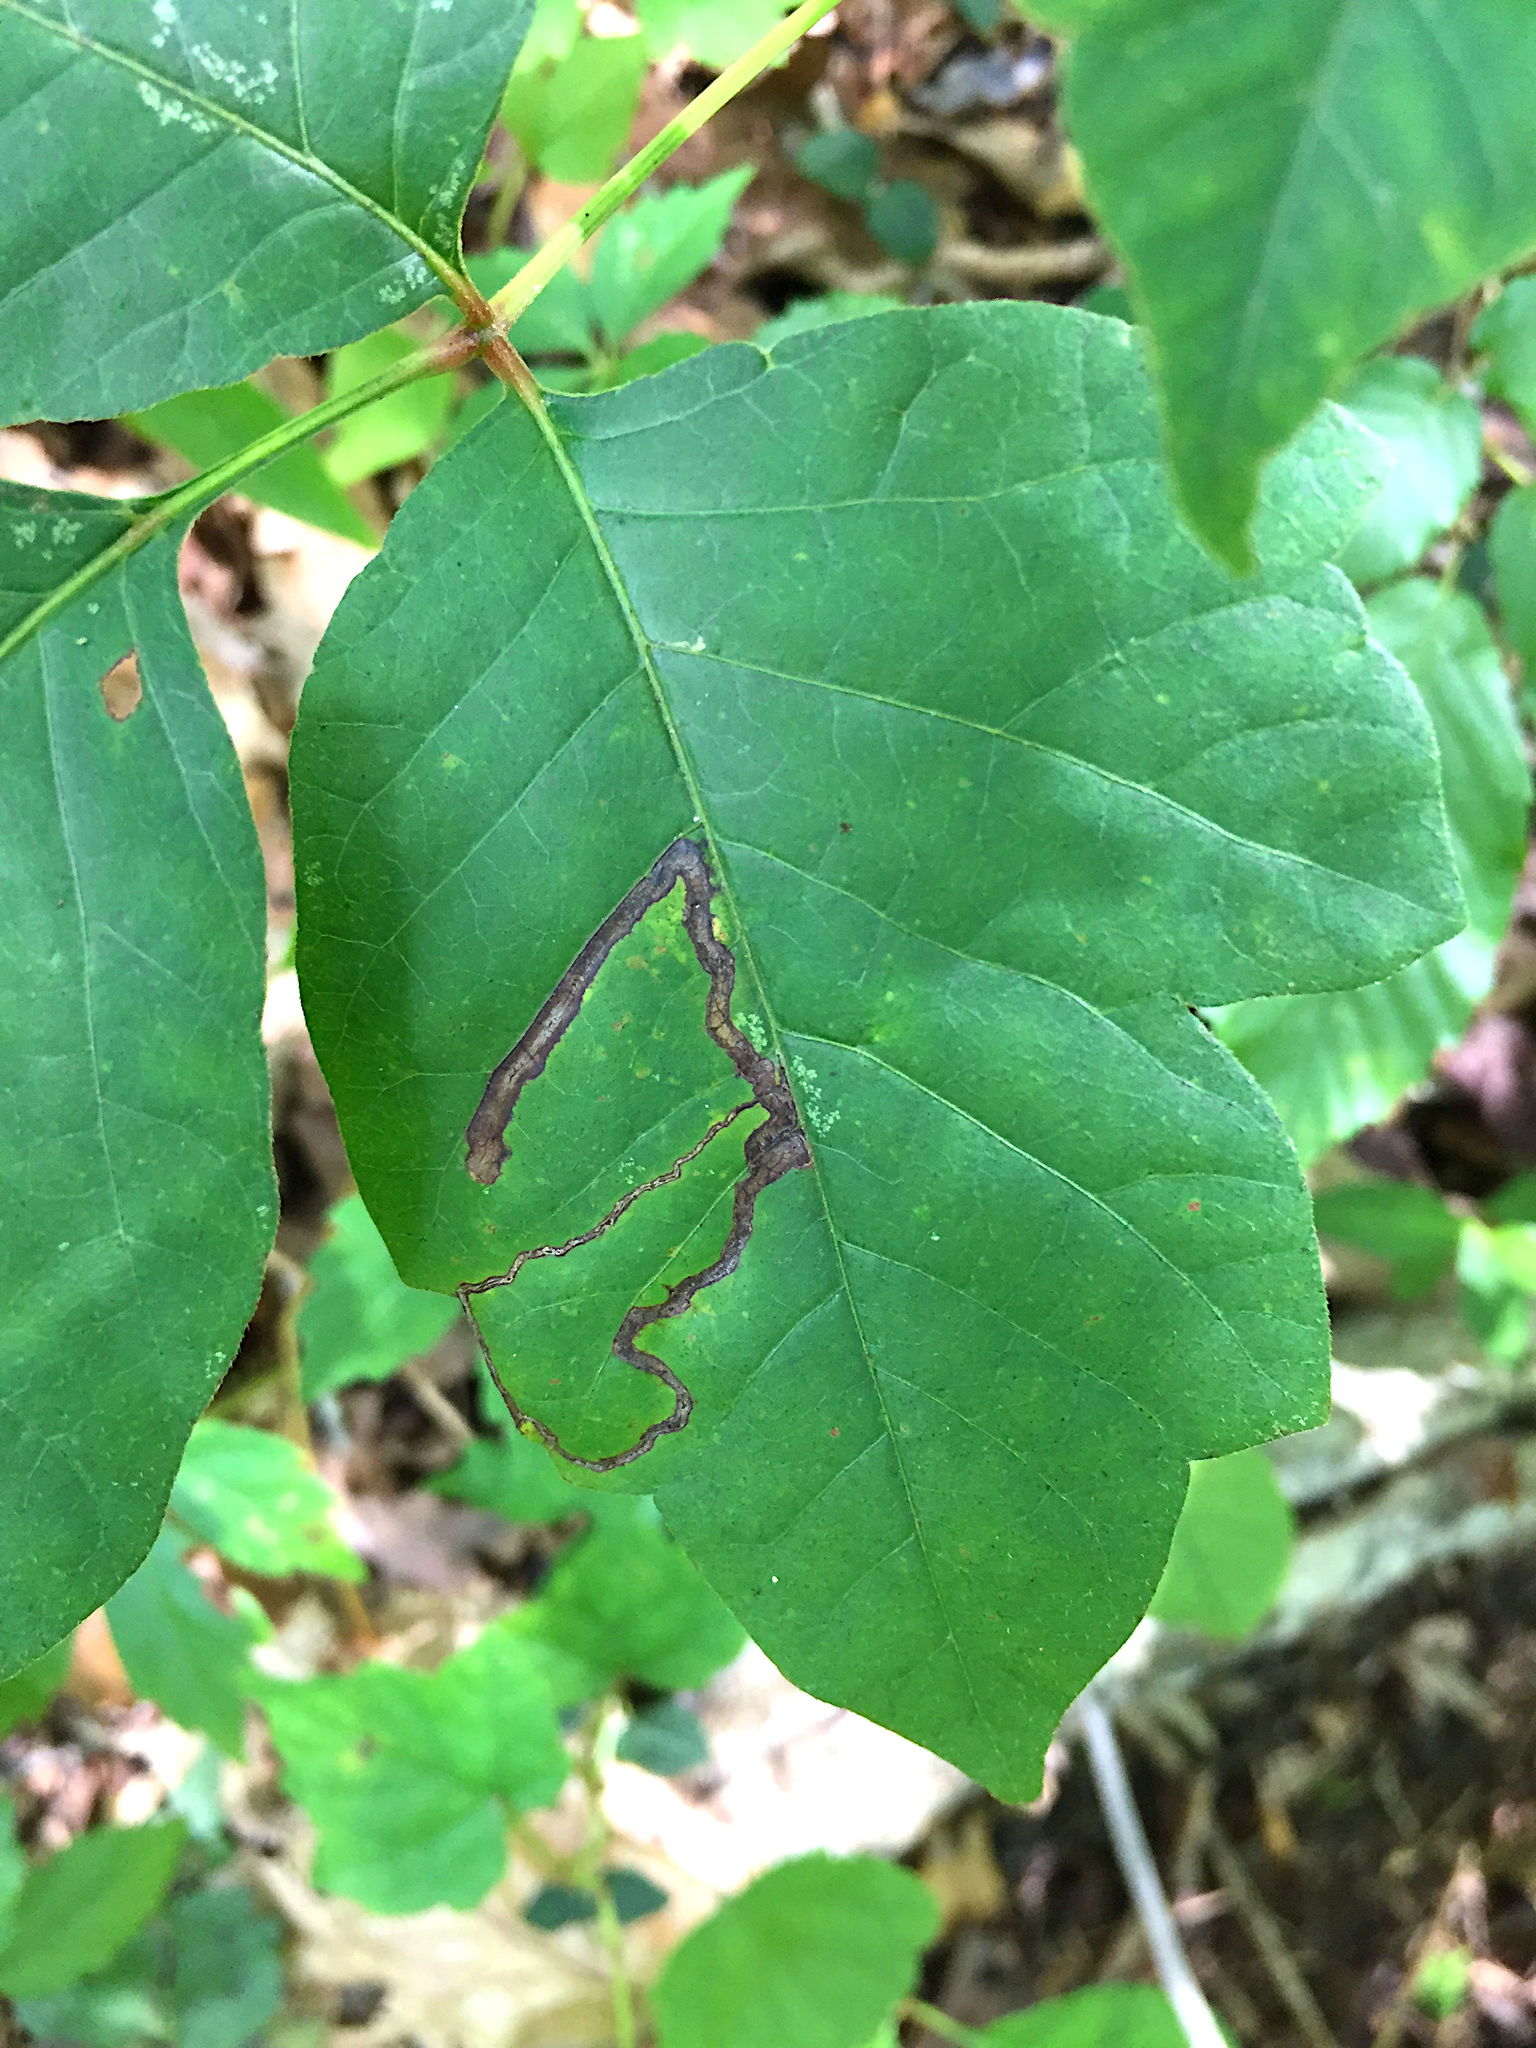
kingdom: Animalia
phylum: Arthropoda
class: Insecta
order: Lepidoptera
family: Nepticulidae
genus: Stigmella
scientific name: Stigmella rhoifoliella
